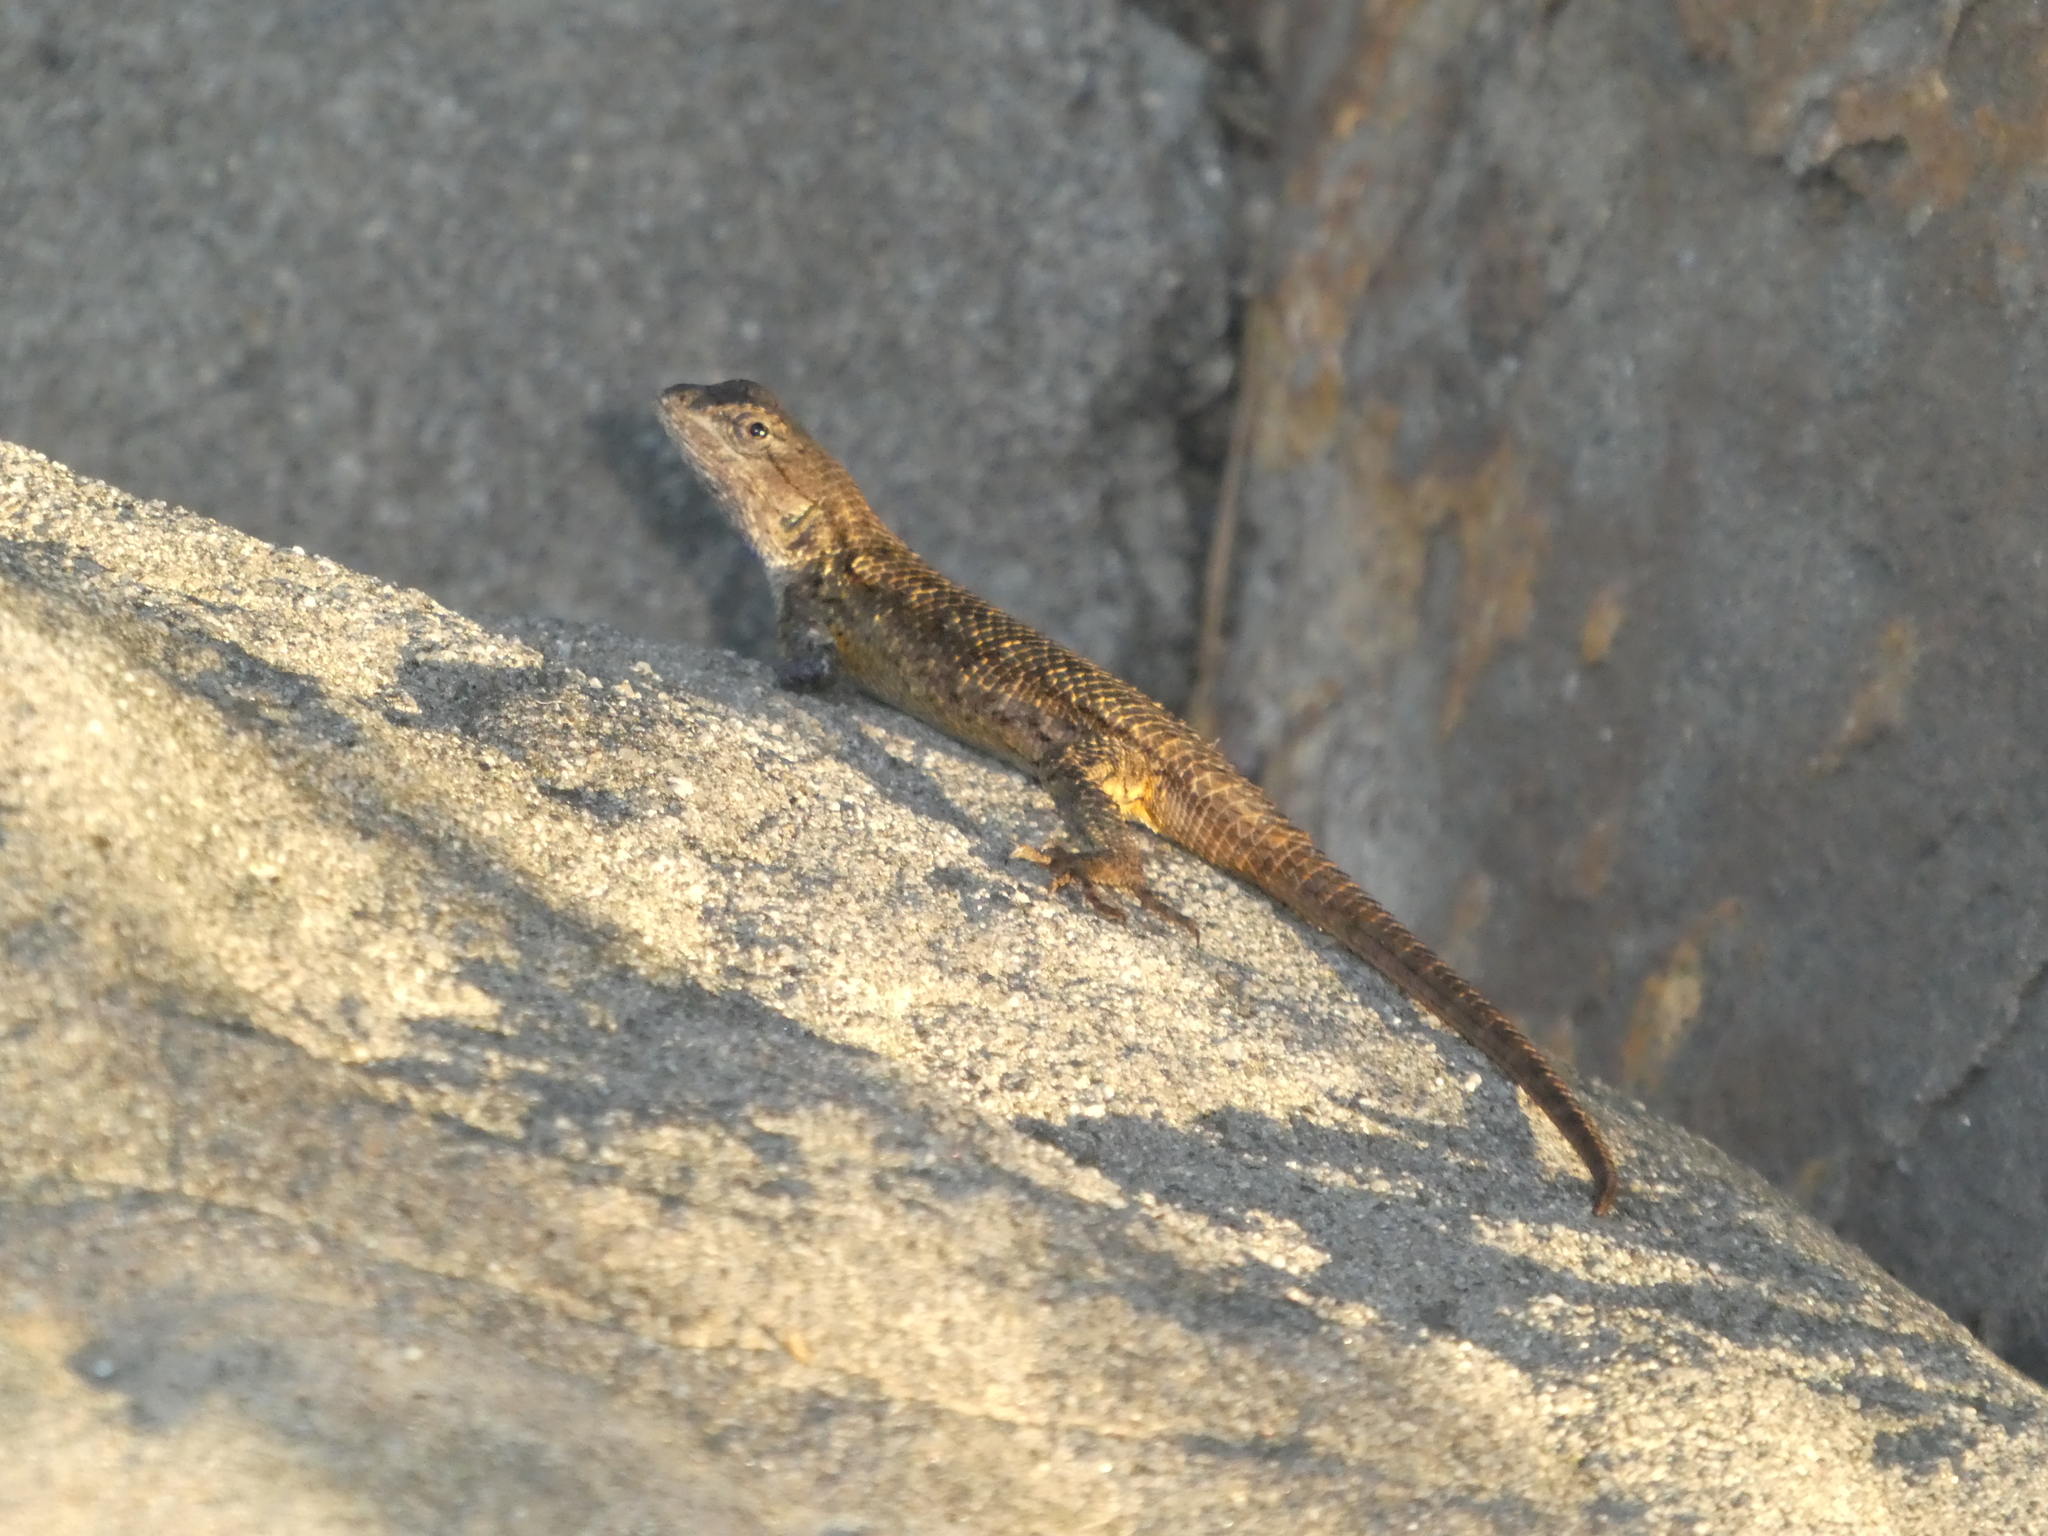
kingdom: Animalia
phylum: Chordata
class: Squamata
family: Phrynosomatidae
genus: Sceloporus
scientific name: Sceloporus occidentalis
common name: Western fence lizard
